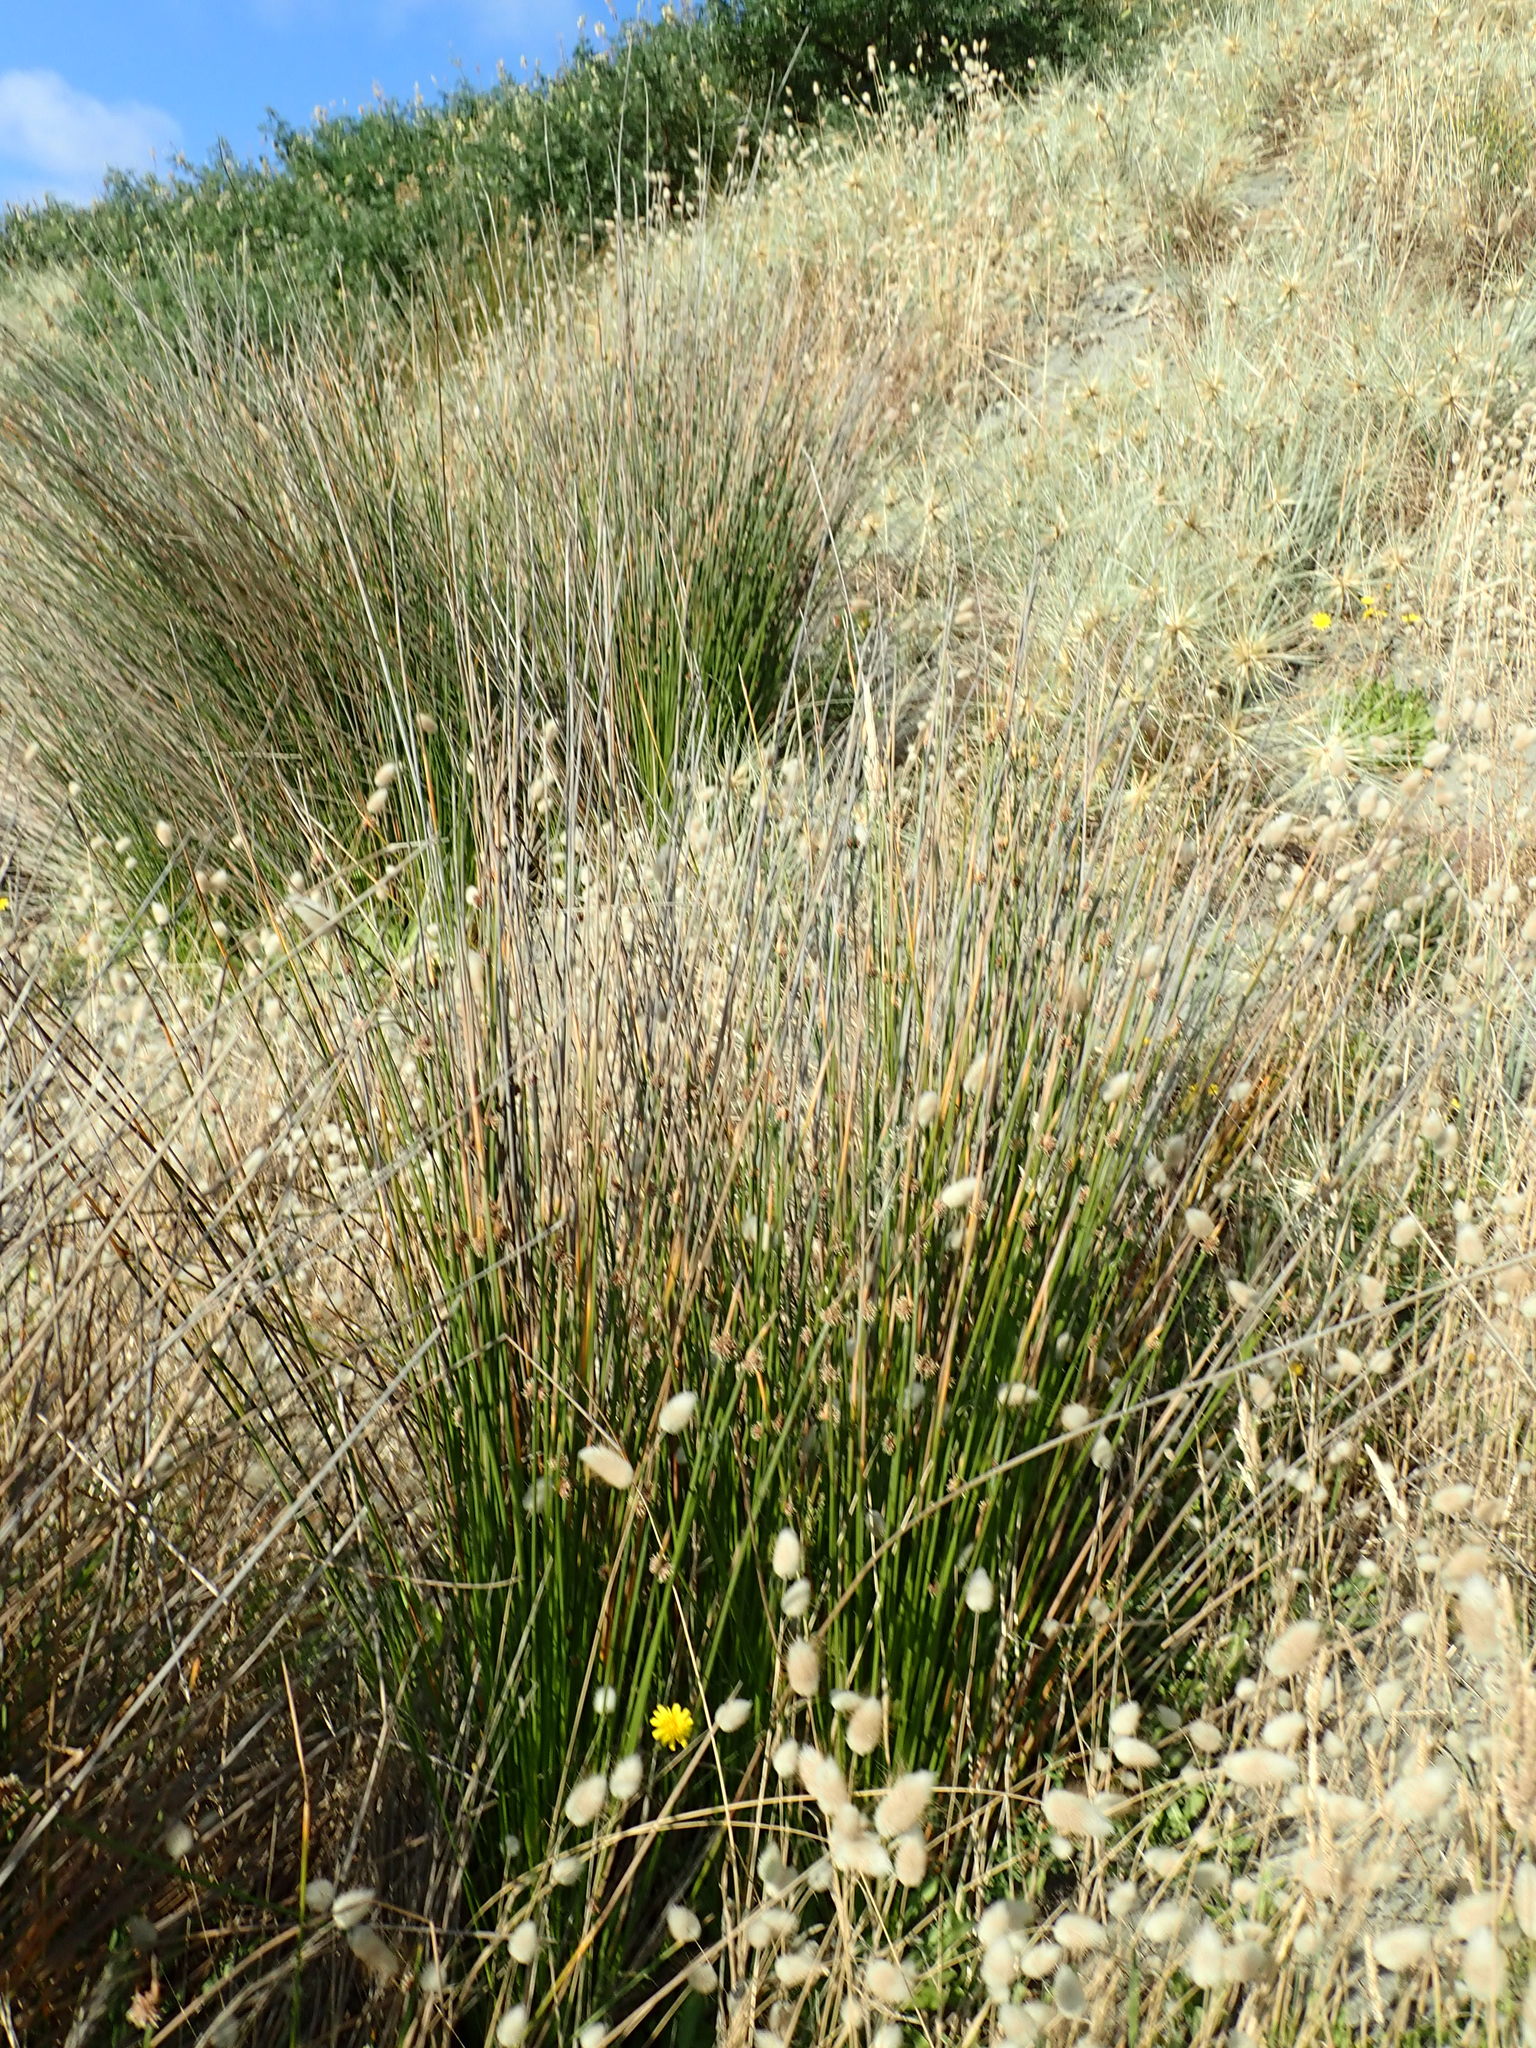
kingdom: Plantae
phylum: Tracheophyta
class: Liliopsida
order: Poales
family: Cyperaceae
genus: Ficinia
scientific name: Ficinia nodosa
